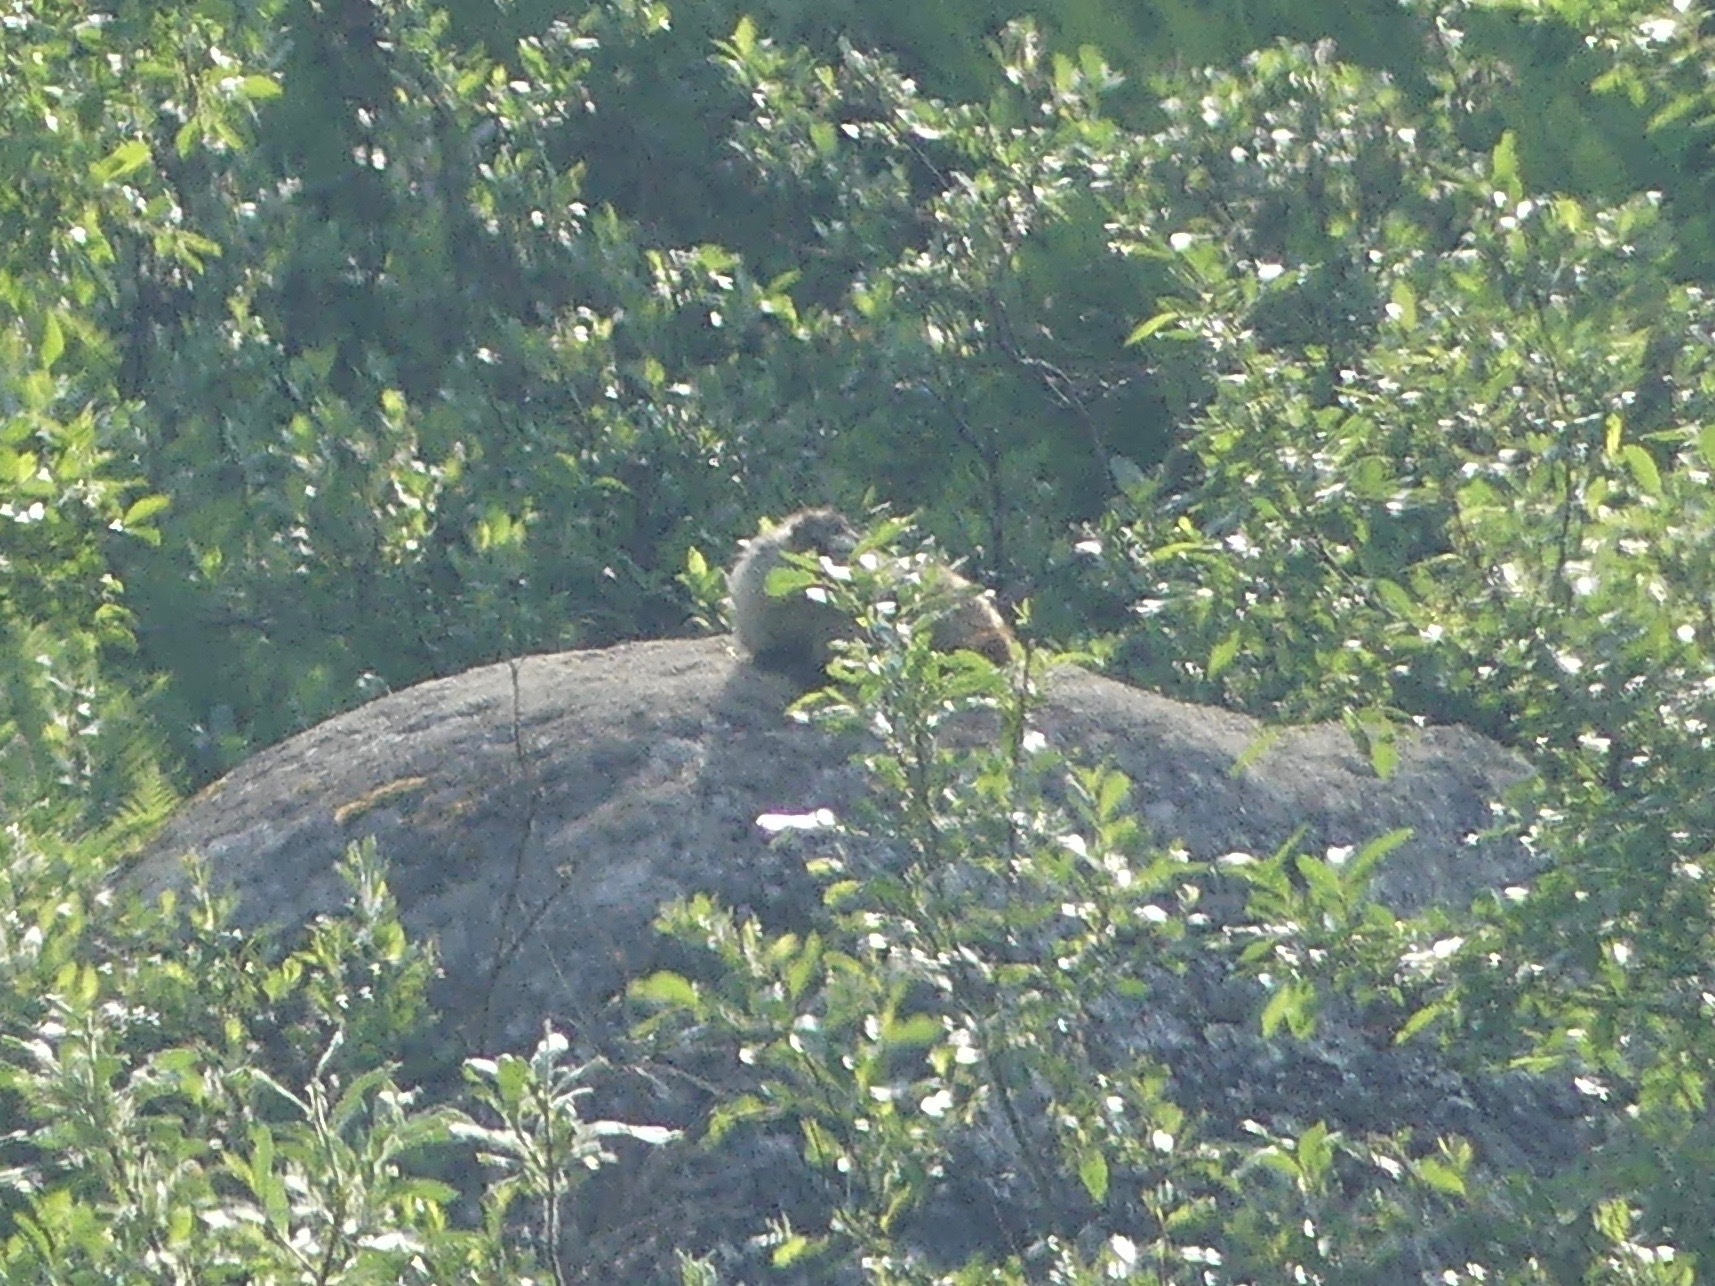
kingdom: Animalia
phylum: Chordata
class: Mammalia
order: Rodentia
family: Sciuridae
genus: Marmota
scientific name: Marmota caligata
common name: Hoary marmot
